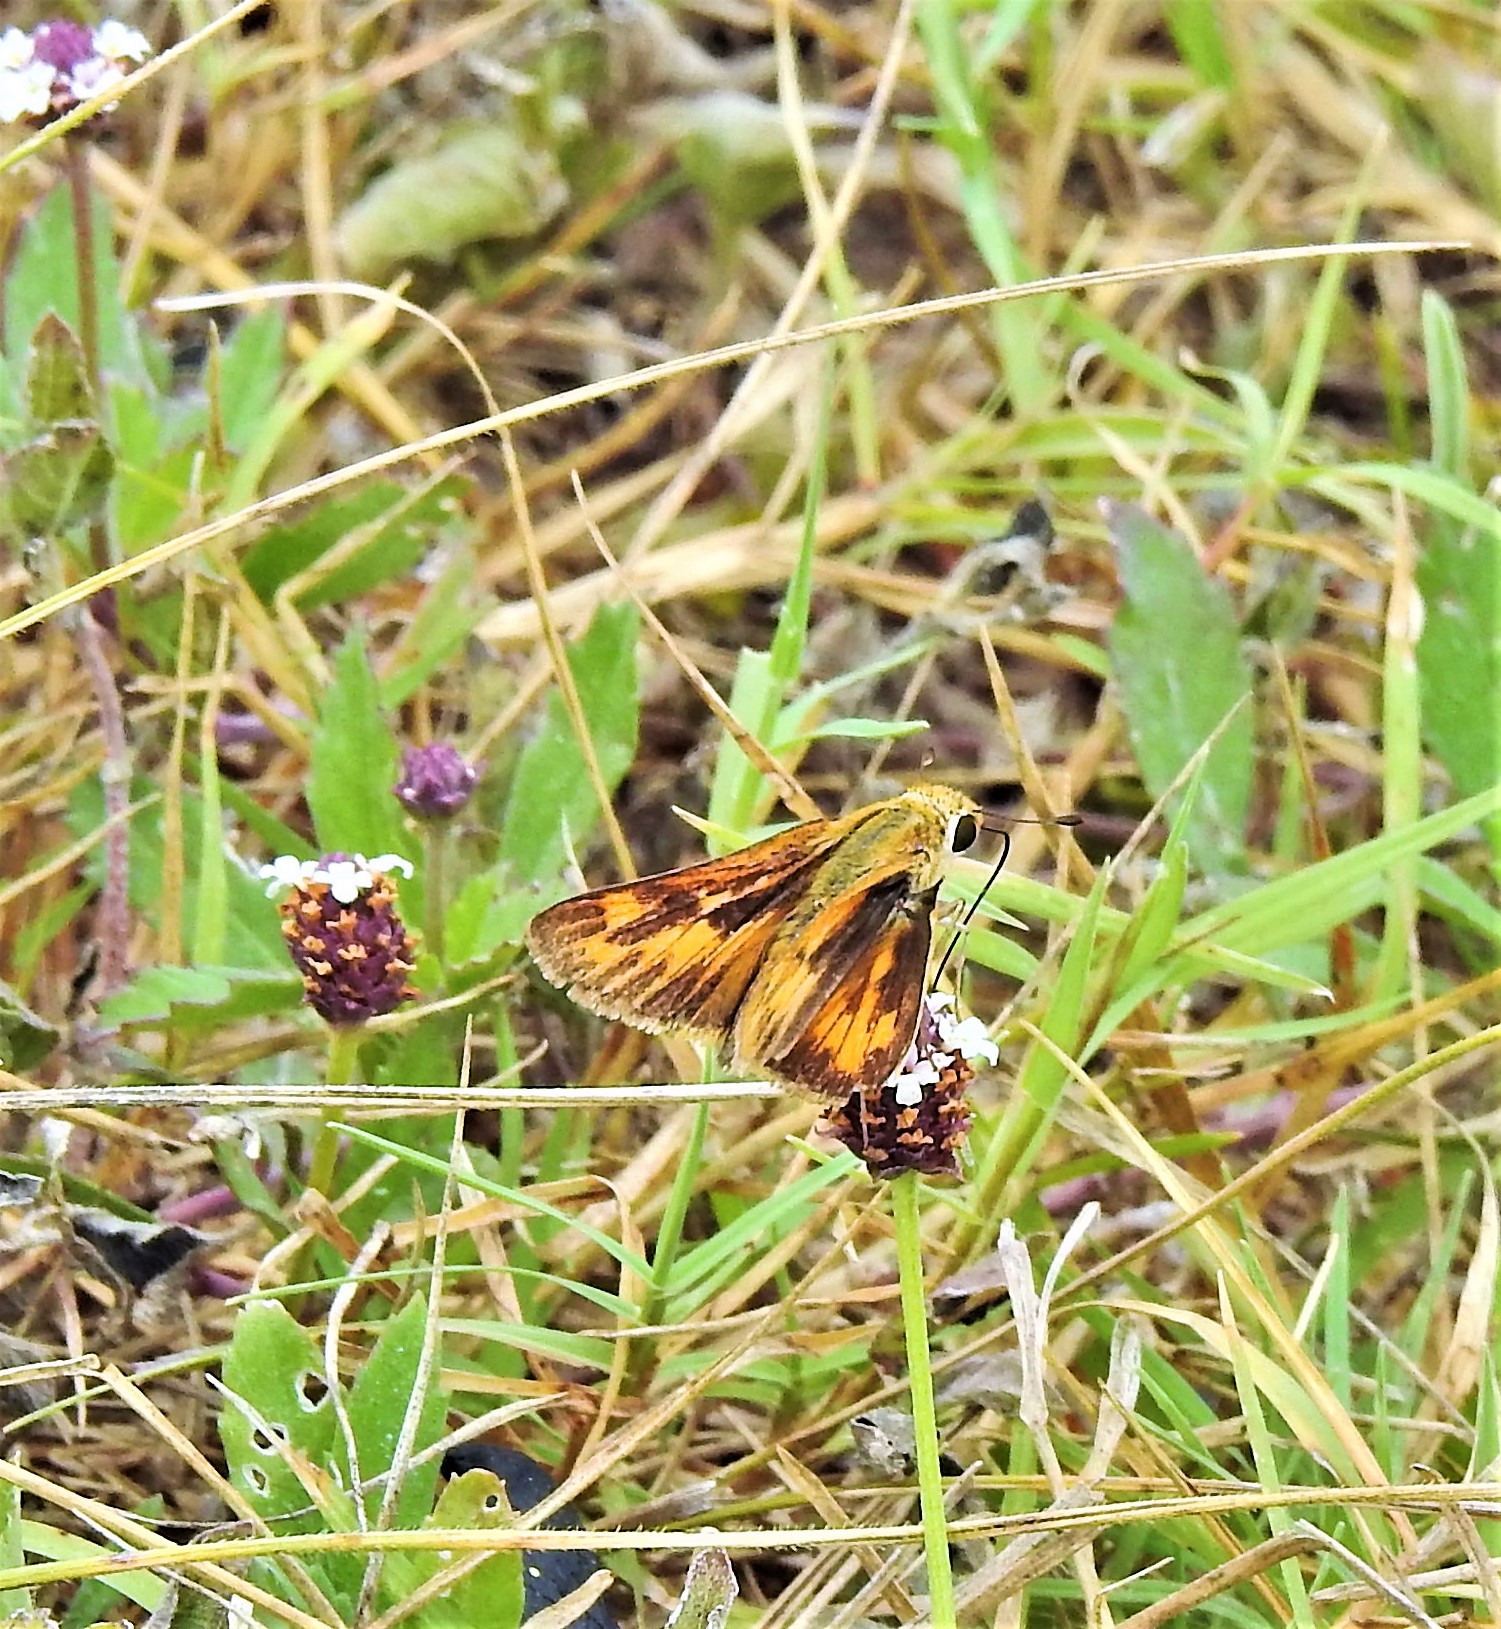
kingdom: Animalia
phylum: Arthropoda
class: Insecta
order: Lepidoptera
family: Hesperiidae
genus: Hylephila
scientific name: Hylephila phyleus
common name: Fiery skipper
